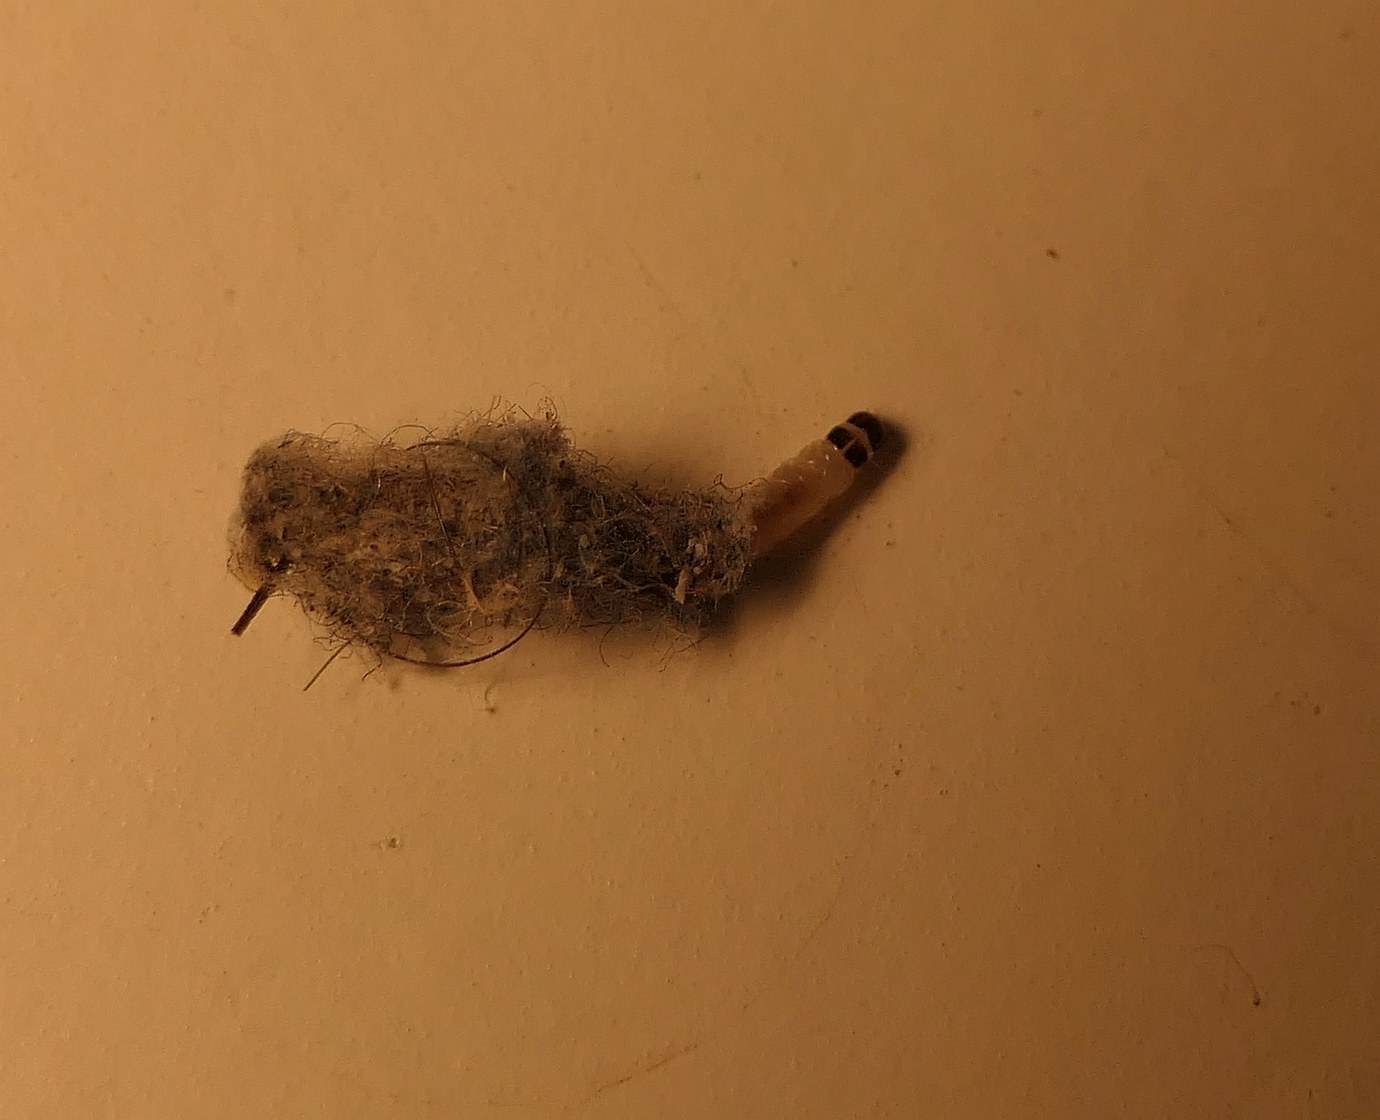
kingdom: Animalia
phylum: Arthropoda
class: Insecta
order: Lepidoptera
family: Tineidae
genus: Tinea
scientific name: Tinea pellionella
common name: Case-making clothes moth
